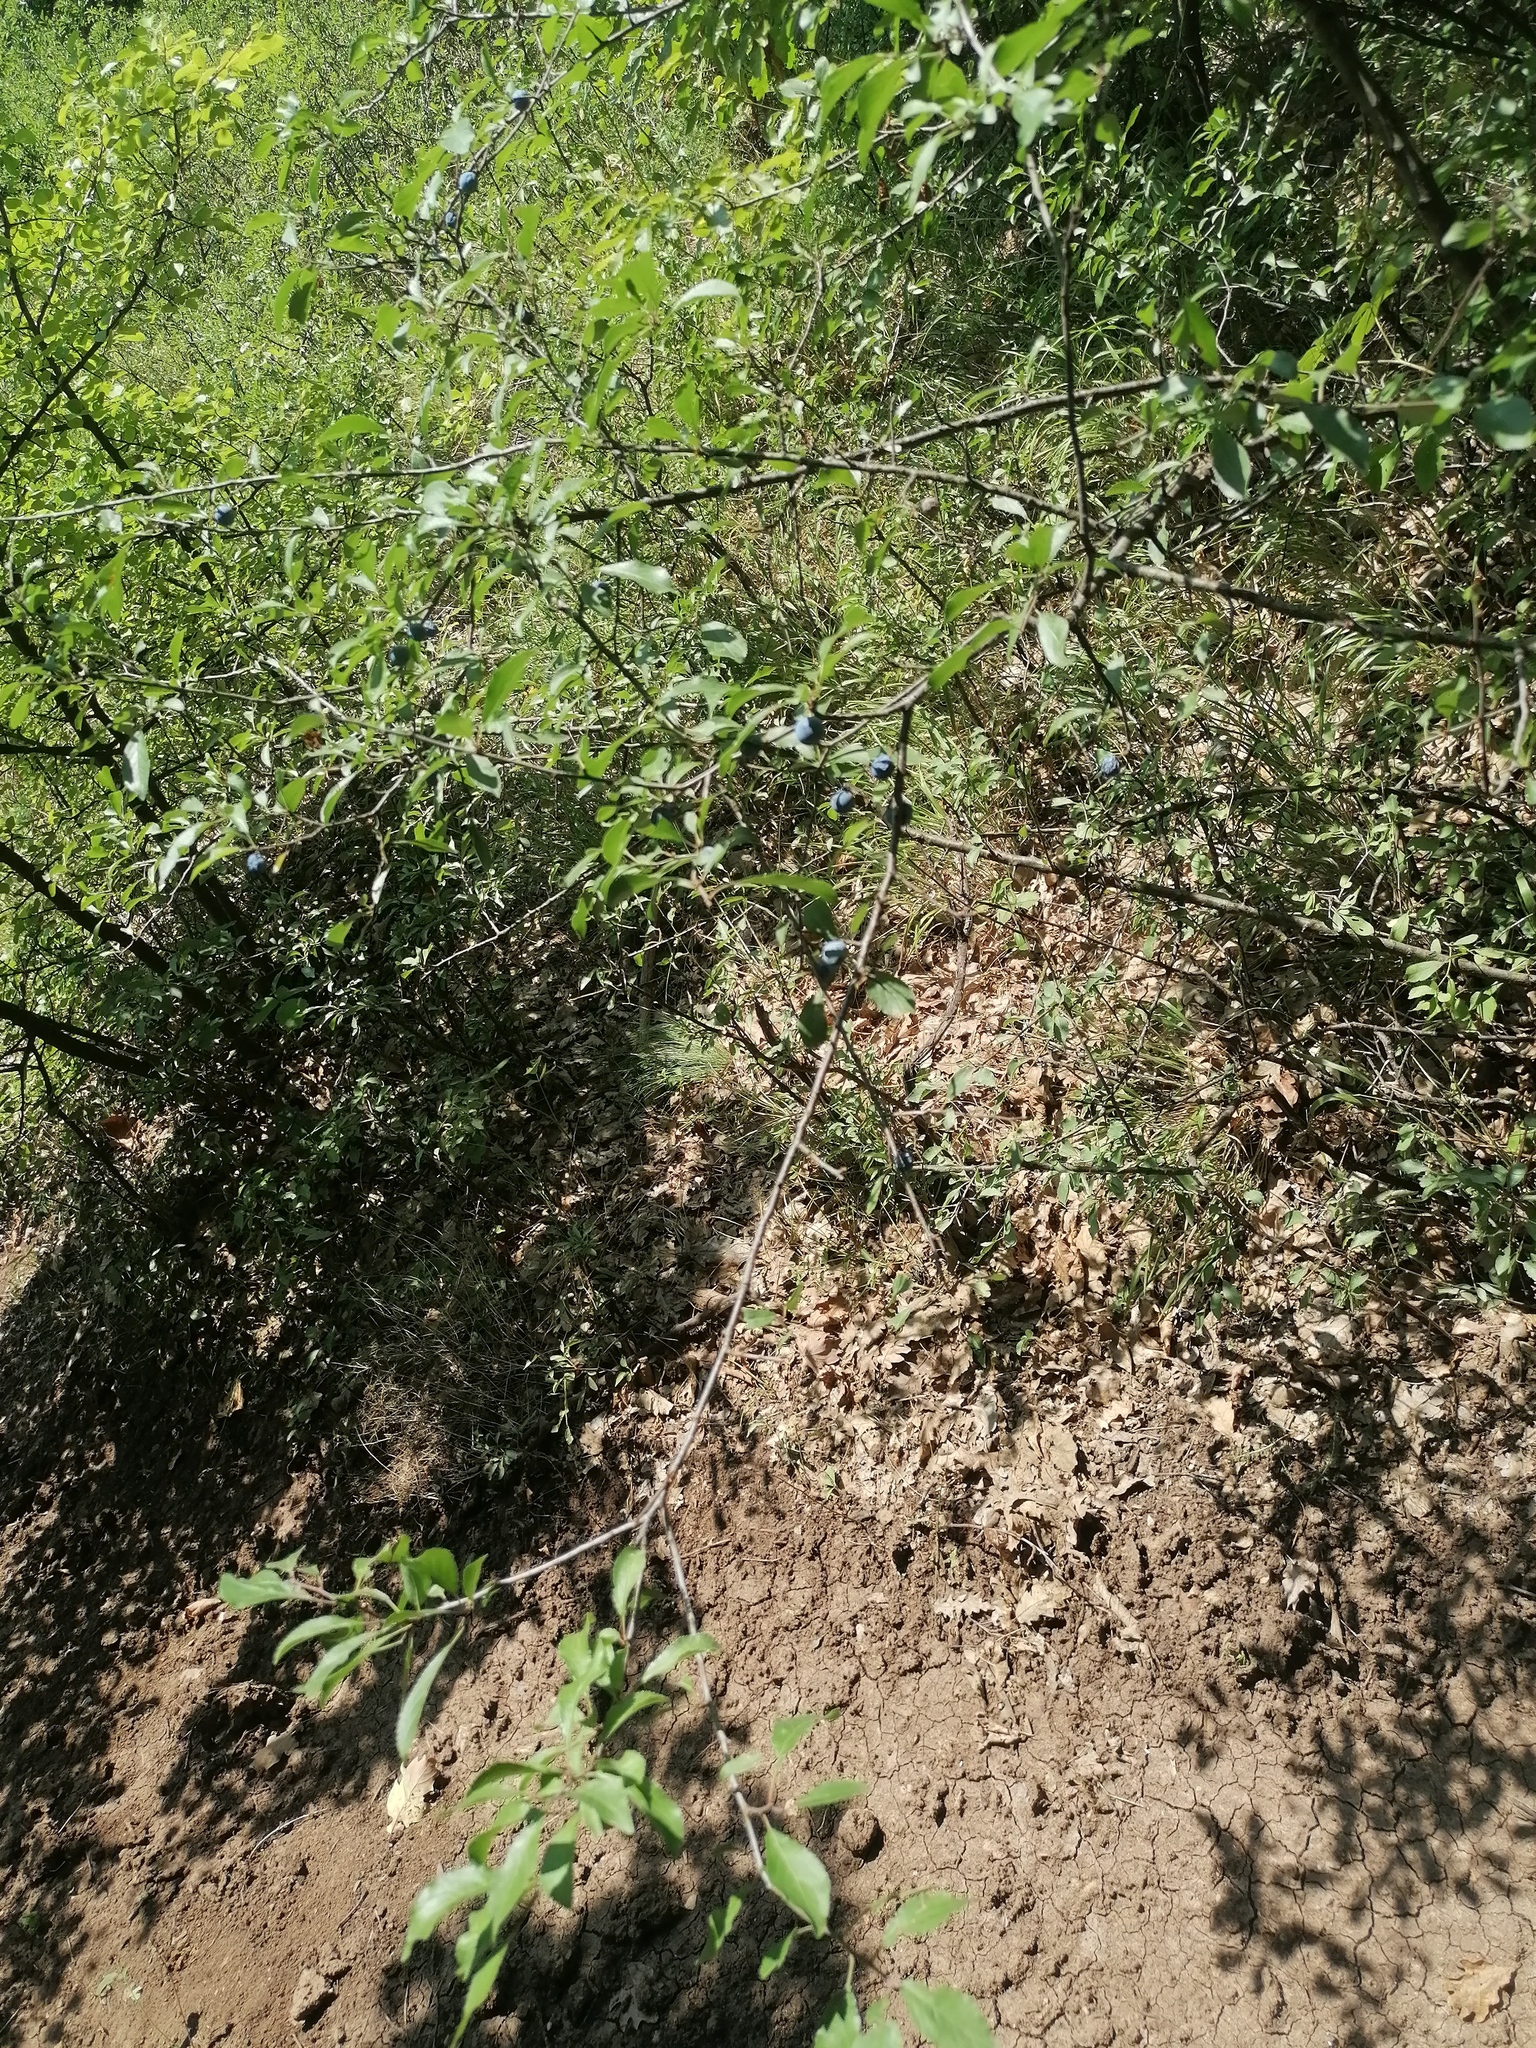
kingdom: Plantae
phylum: Tracheophyta
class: Magnoliopsida
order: Rosales
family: Rosaceae
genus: Prunus
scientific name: Prunus spinosa
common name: Blackthorn
